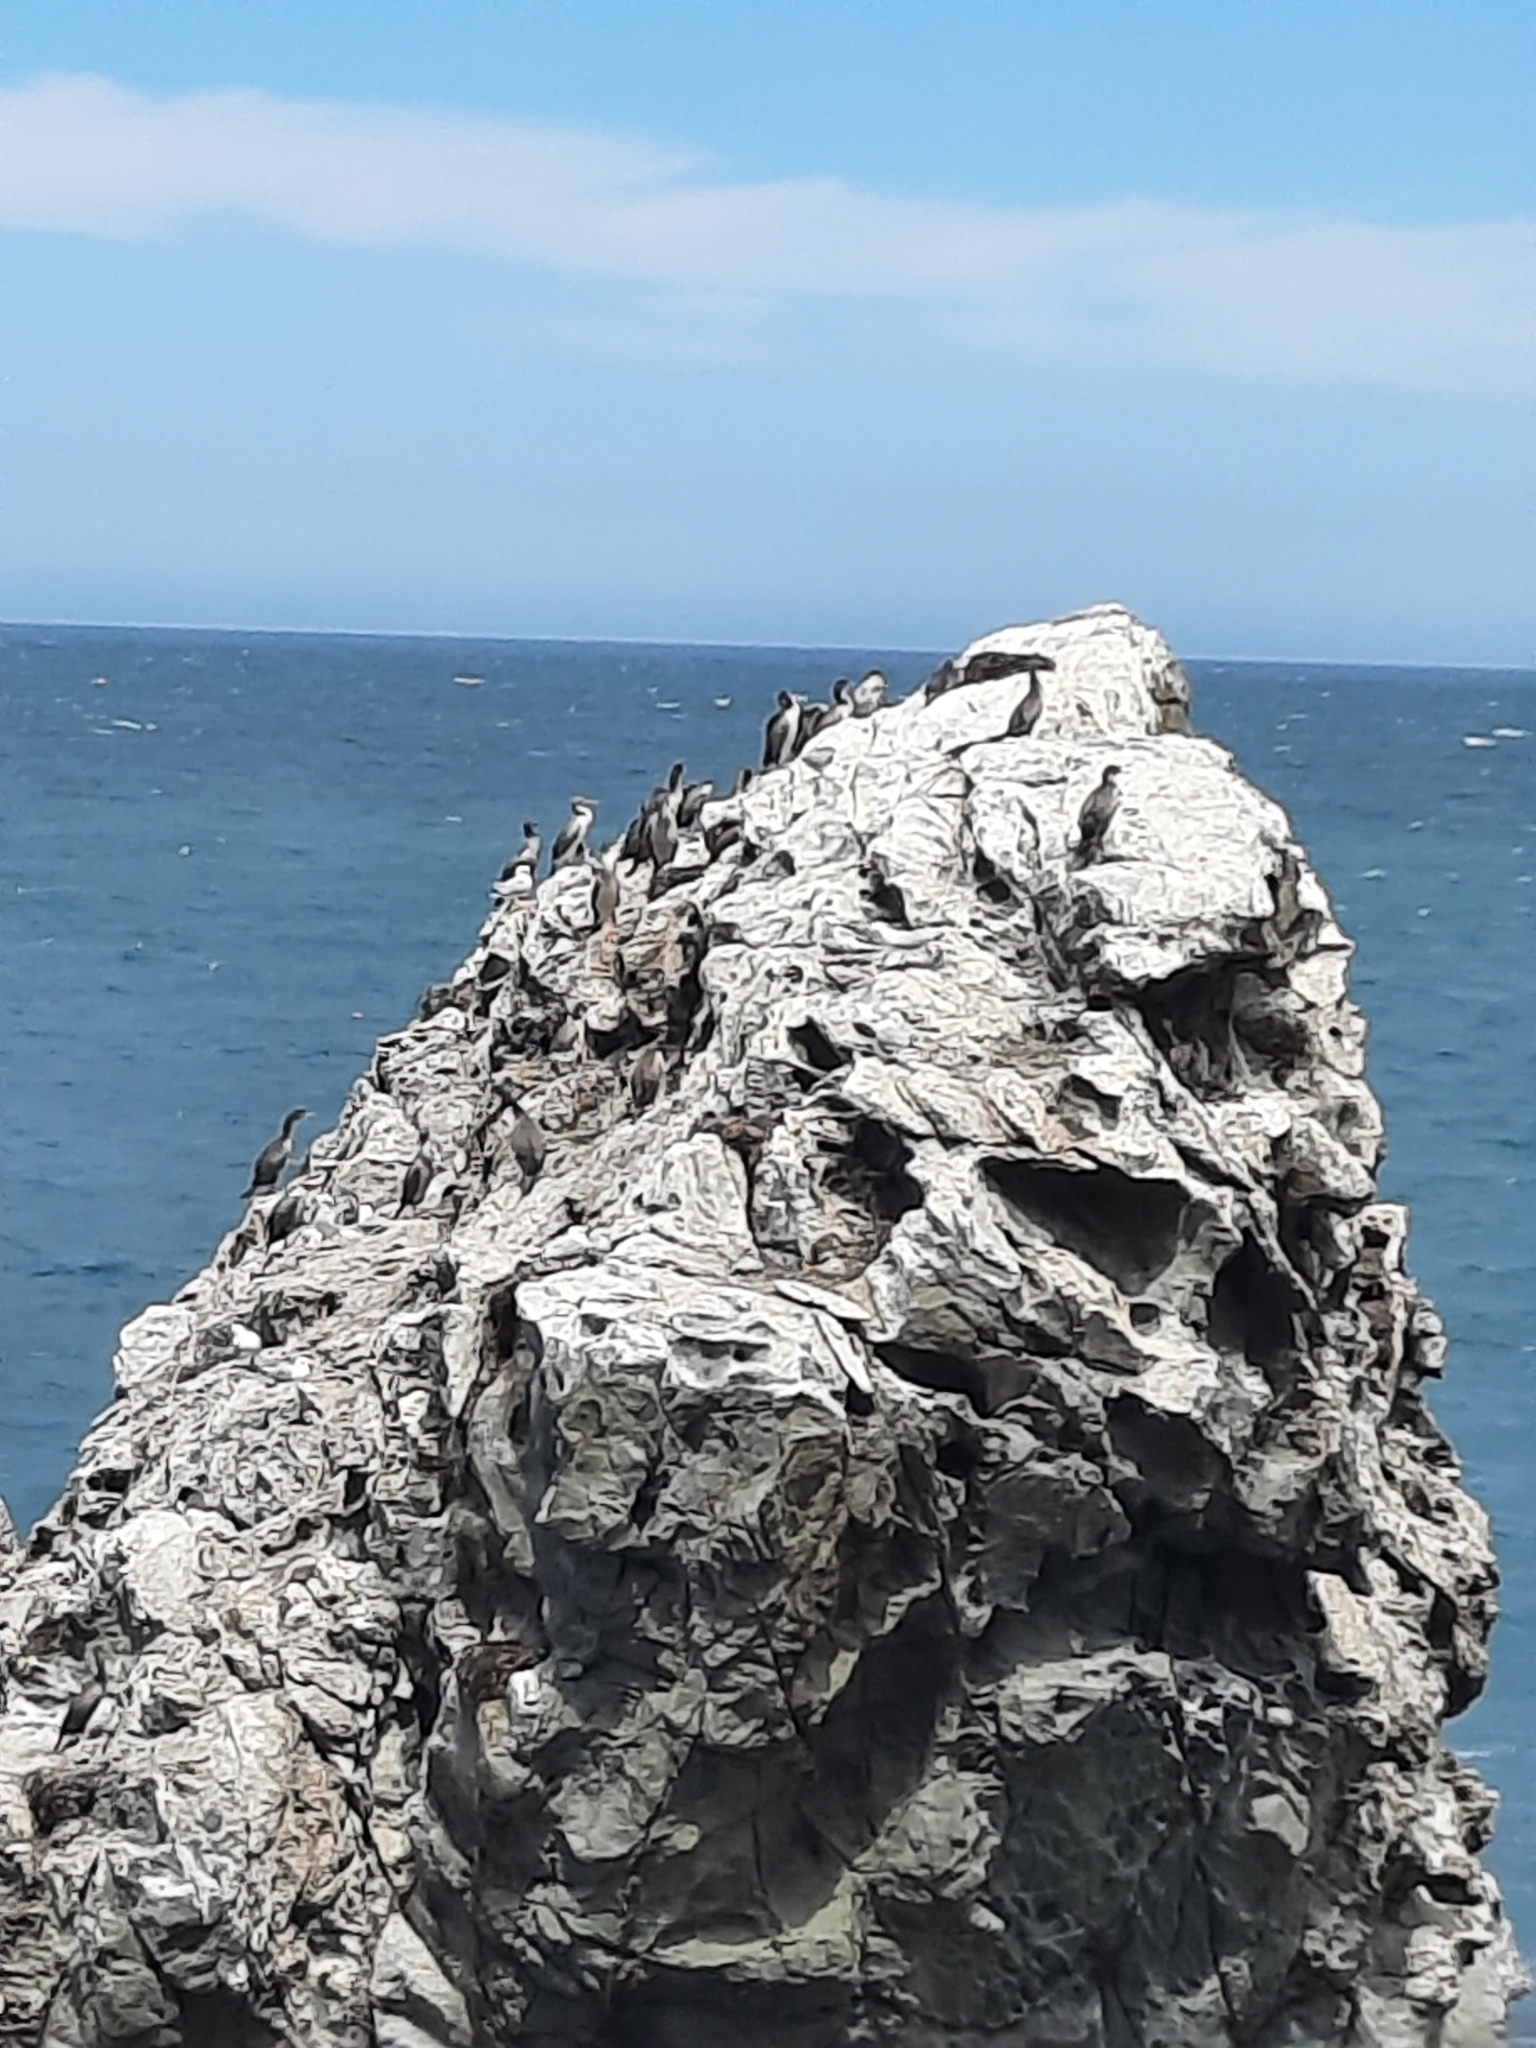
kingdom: Animalia
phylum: Chordata
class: Aves
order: Suliformes
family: Phalacrocoracidae
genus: Phalacrocorax
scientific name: Phalacrocorax punctatus
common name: Spotted shag
